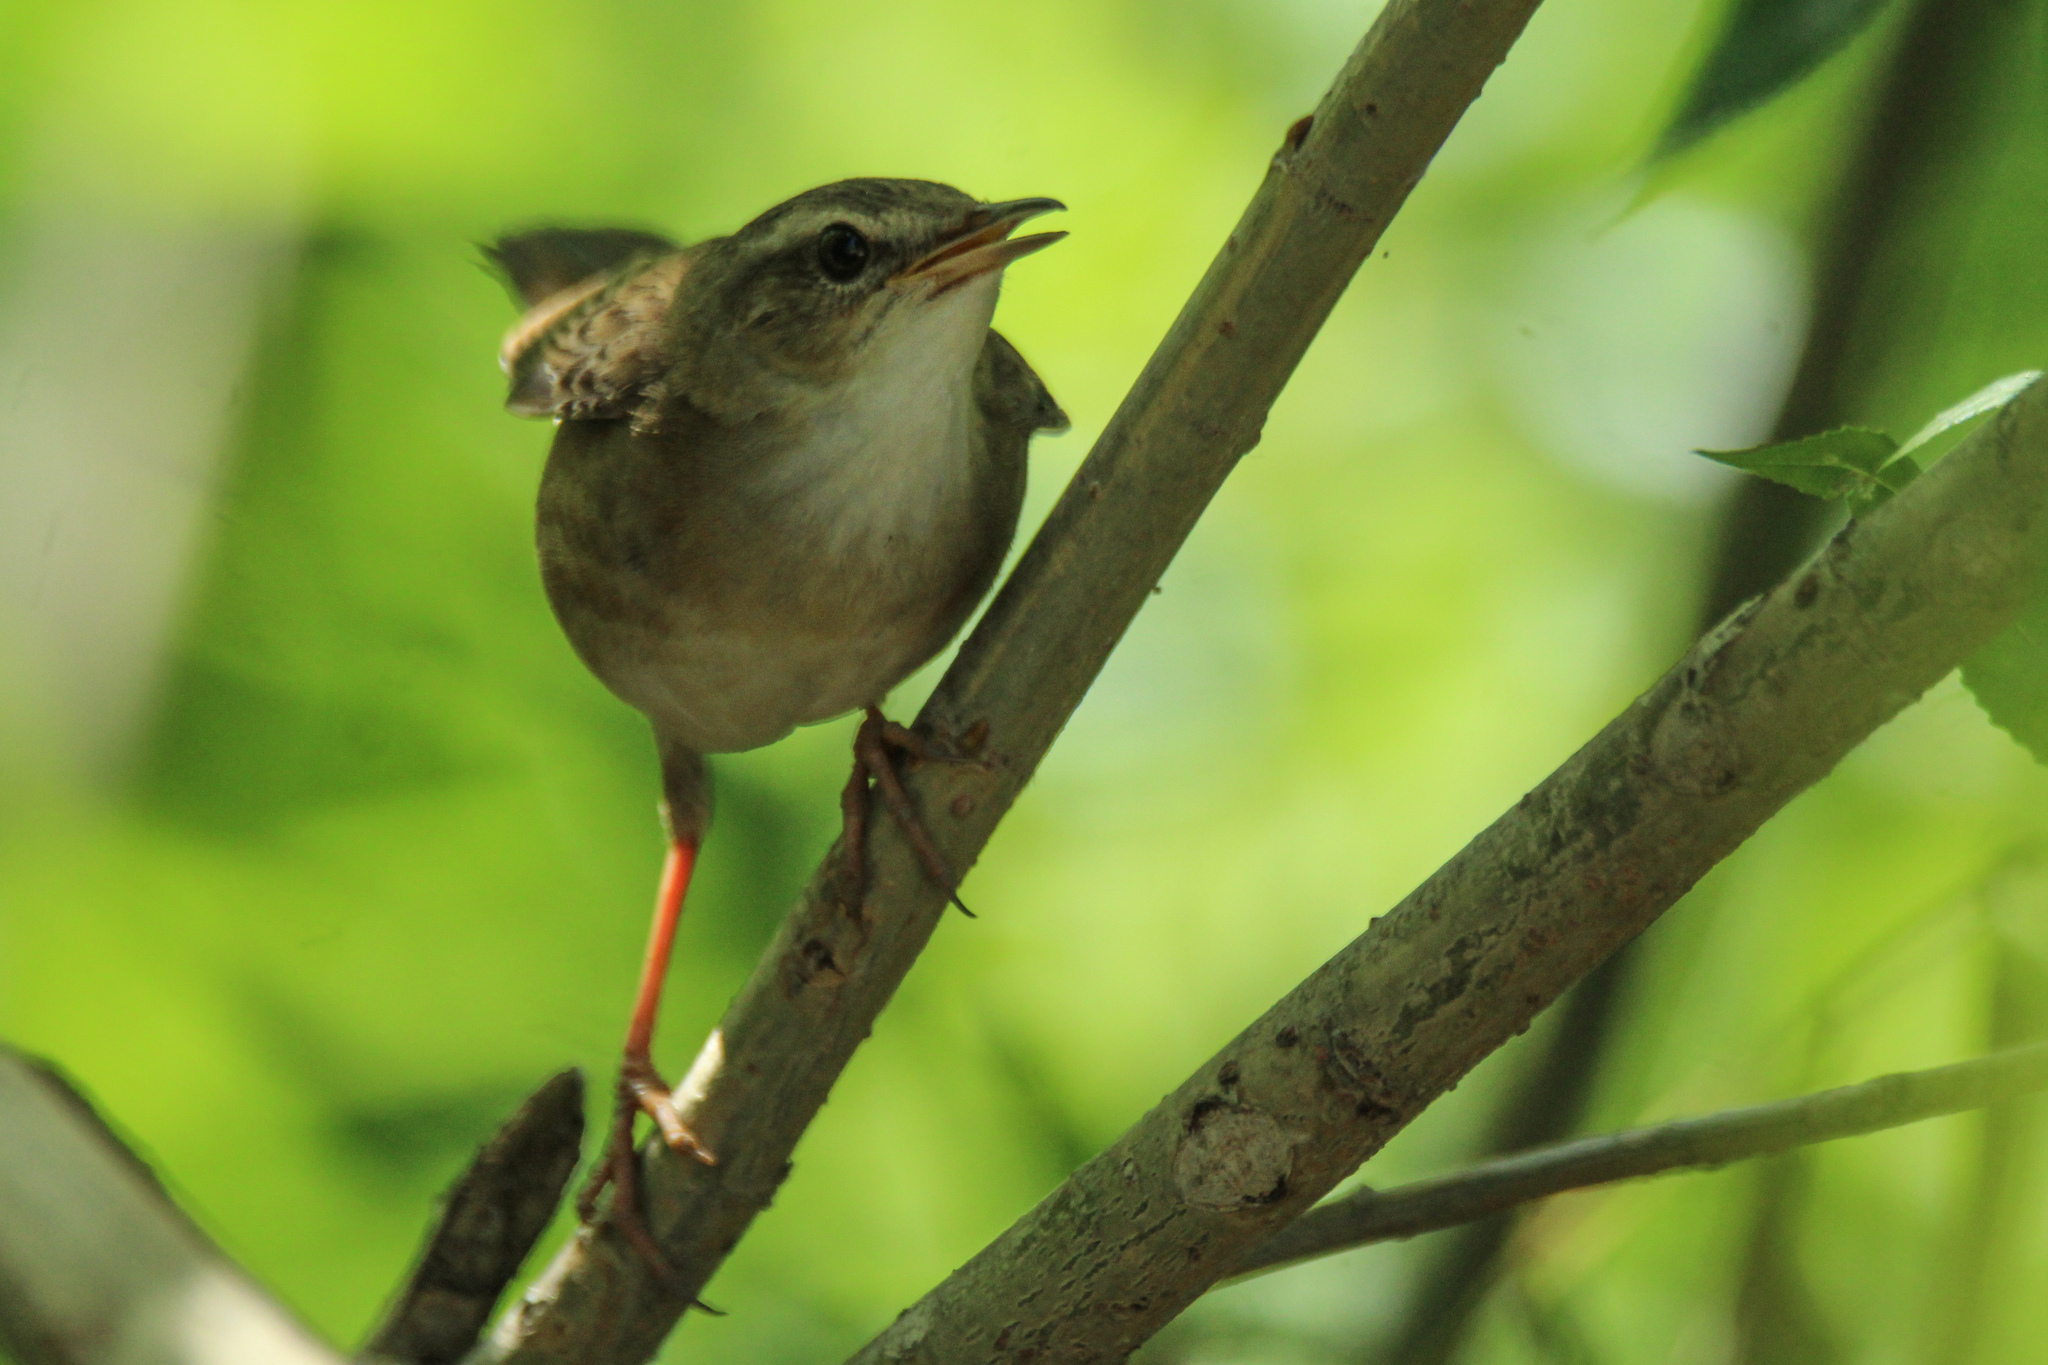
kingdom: Animalia
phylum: Chordata
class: Aves
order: Passeriformes
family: Locustellidae
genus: Locustella
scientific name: Locustella certhiola
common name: Pallas's grasshopper warbler
